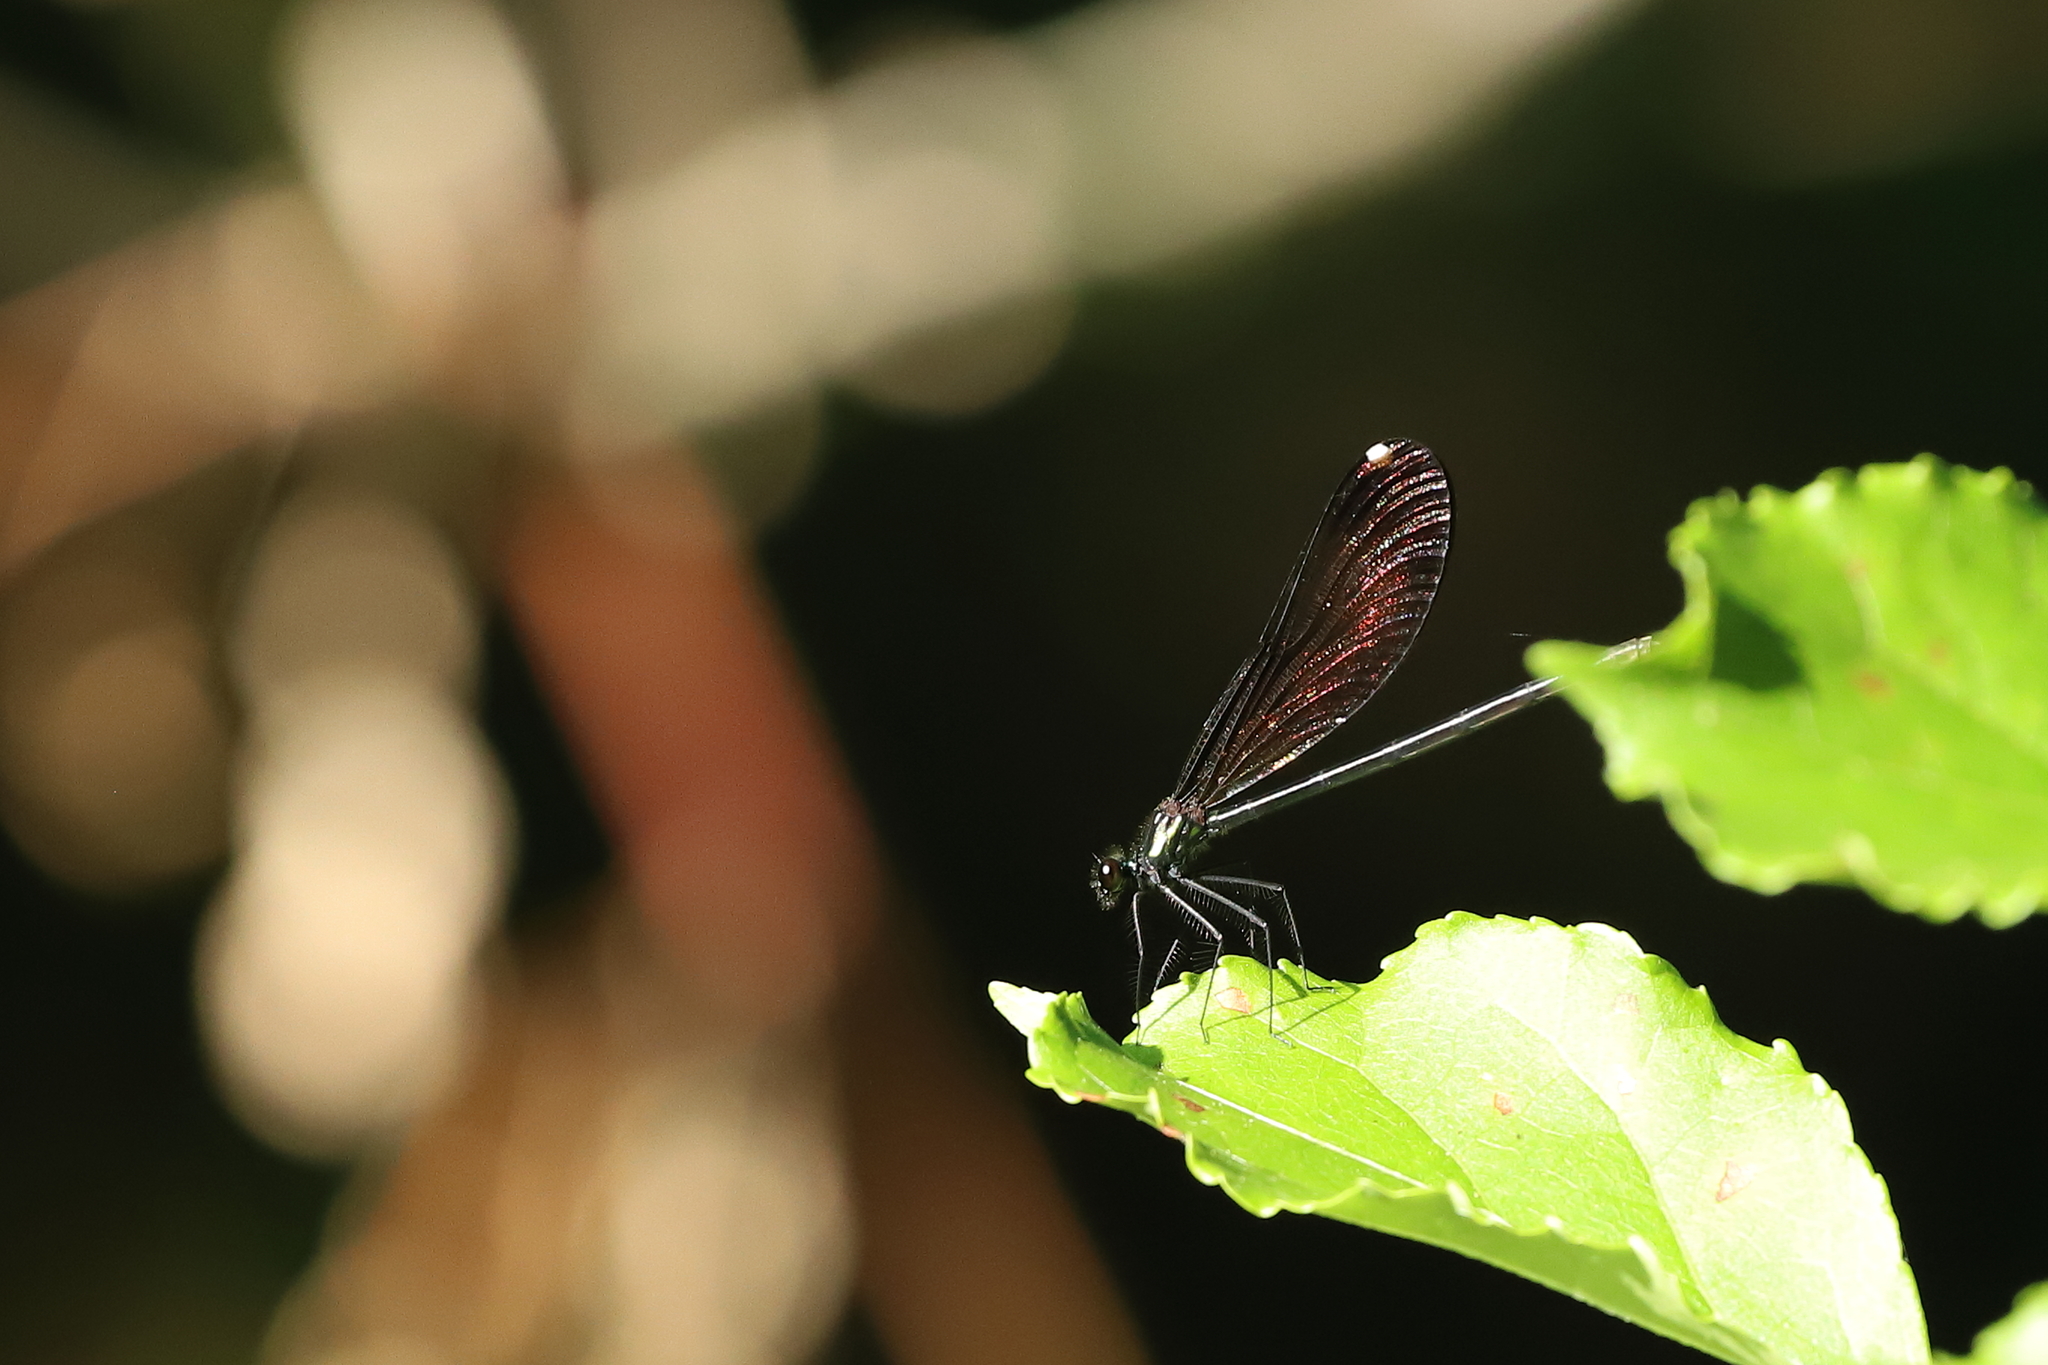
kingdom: Animalia
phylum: Arthropoda
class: Insecta
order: Odonata
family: Calopterygidae
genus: Calopteryx
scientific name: Calopteryx maculata
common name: Ebony jewelwing
